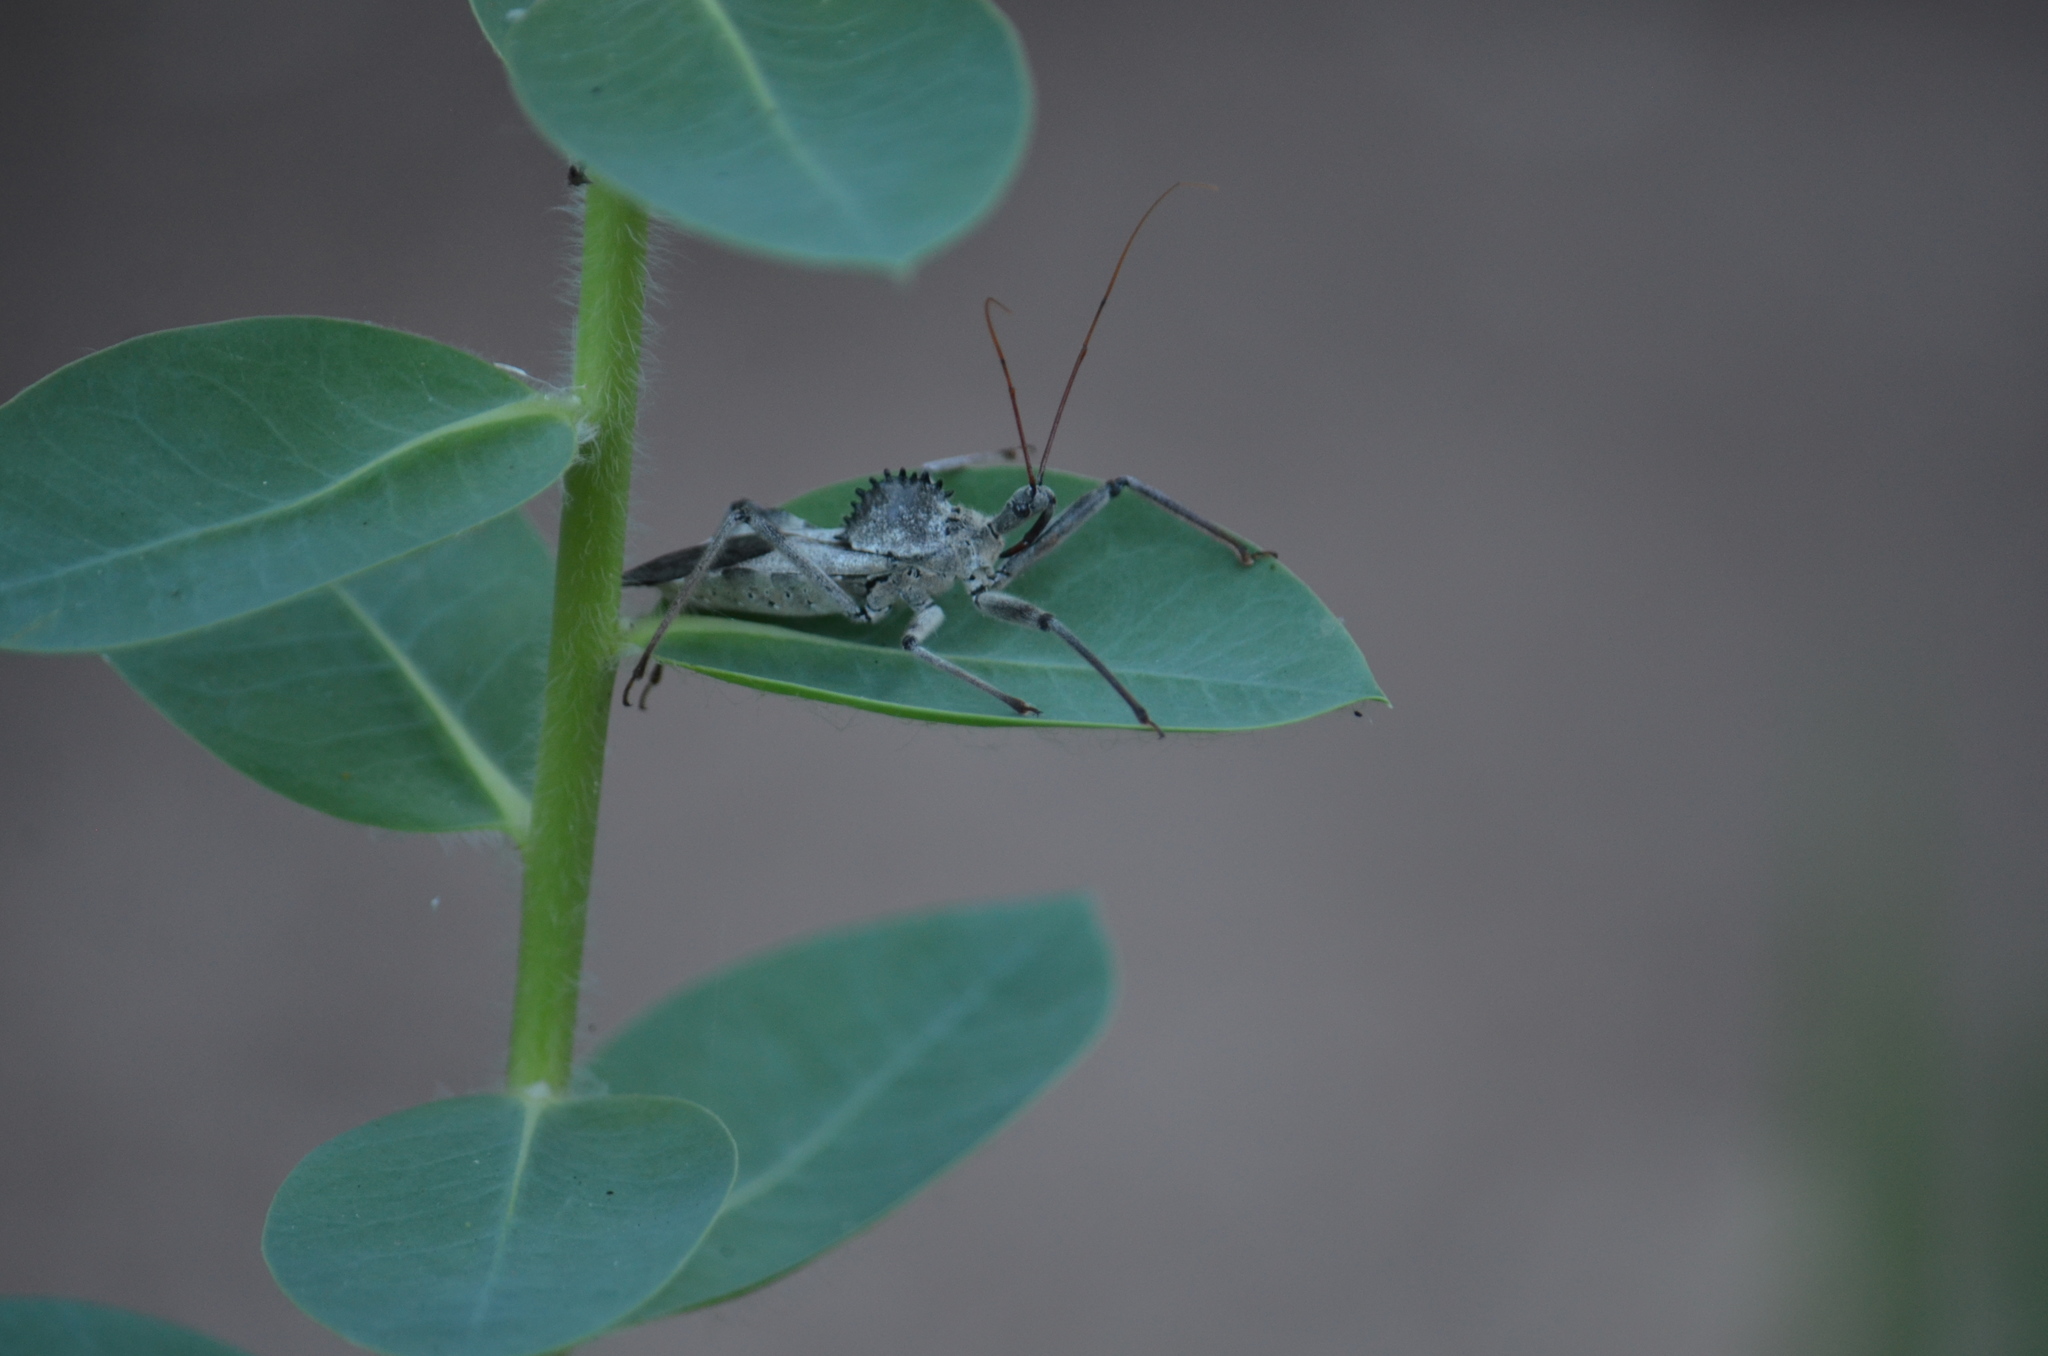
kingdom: Animalia
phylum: Arthropoda
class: Insecta
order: Hemiptera
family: Reduviidae
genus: Arilus
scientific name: Arilus cristatus
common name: North american wheel bug
